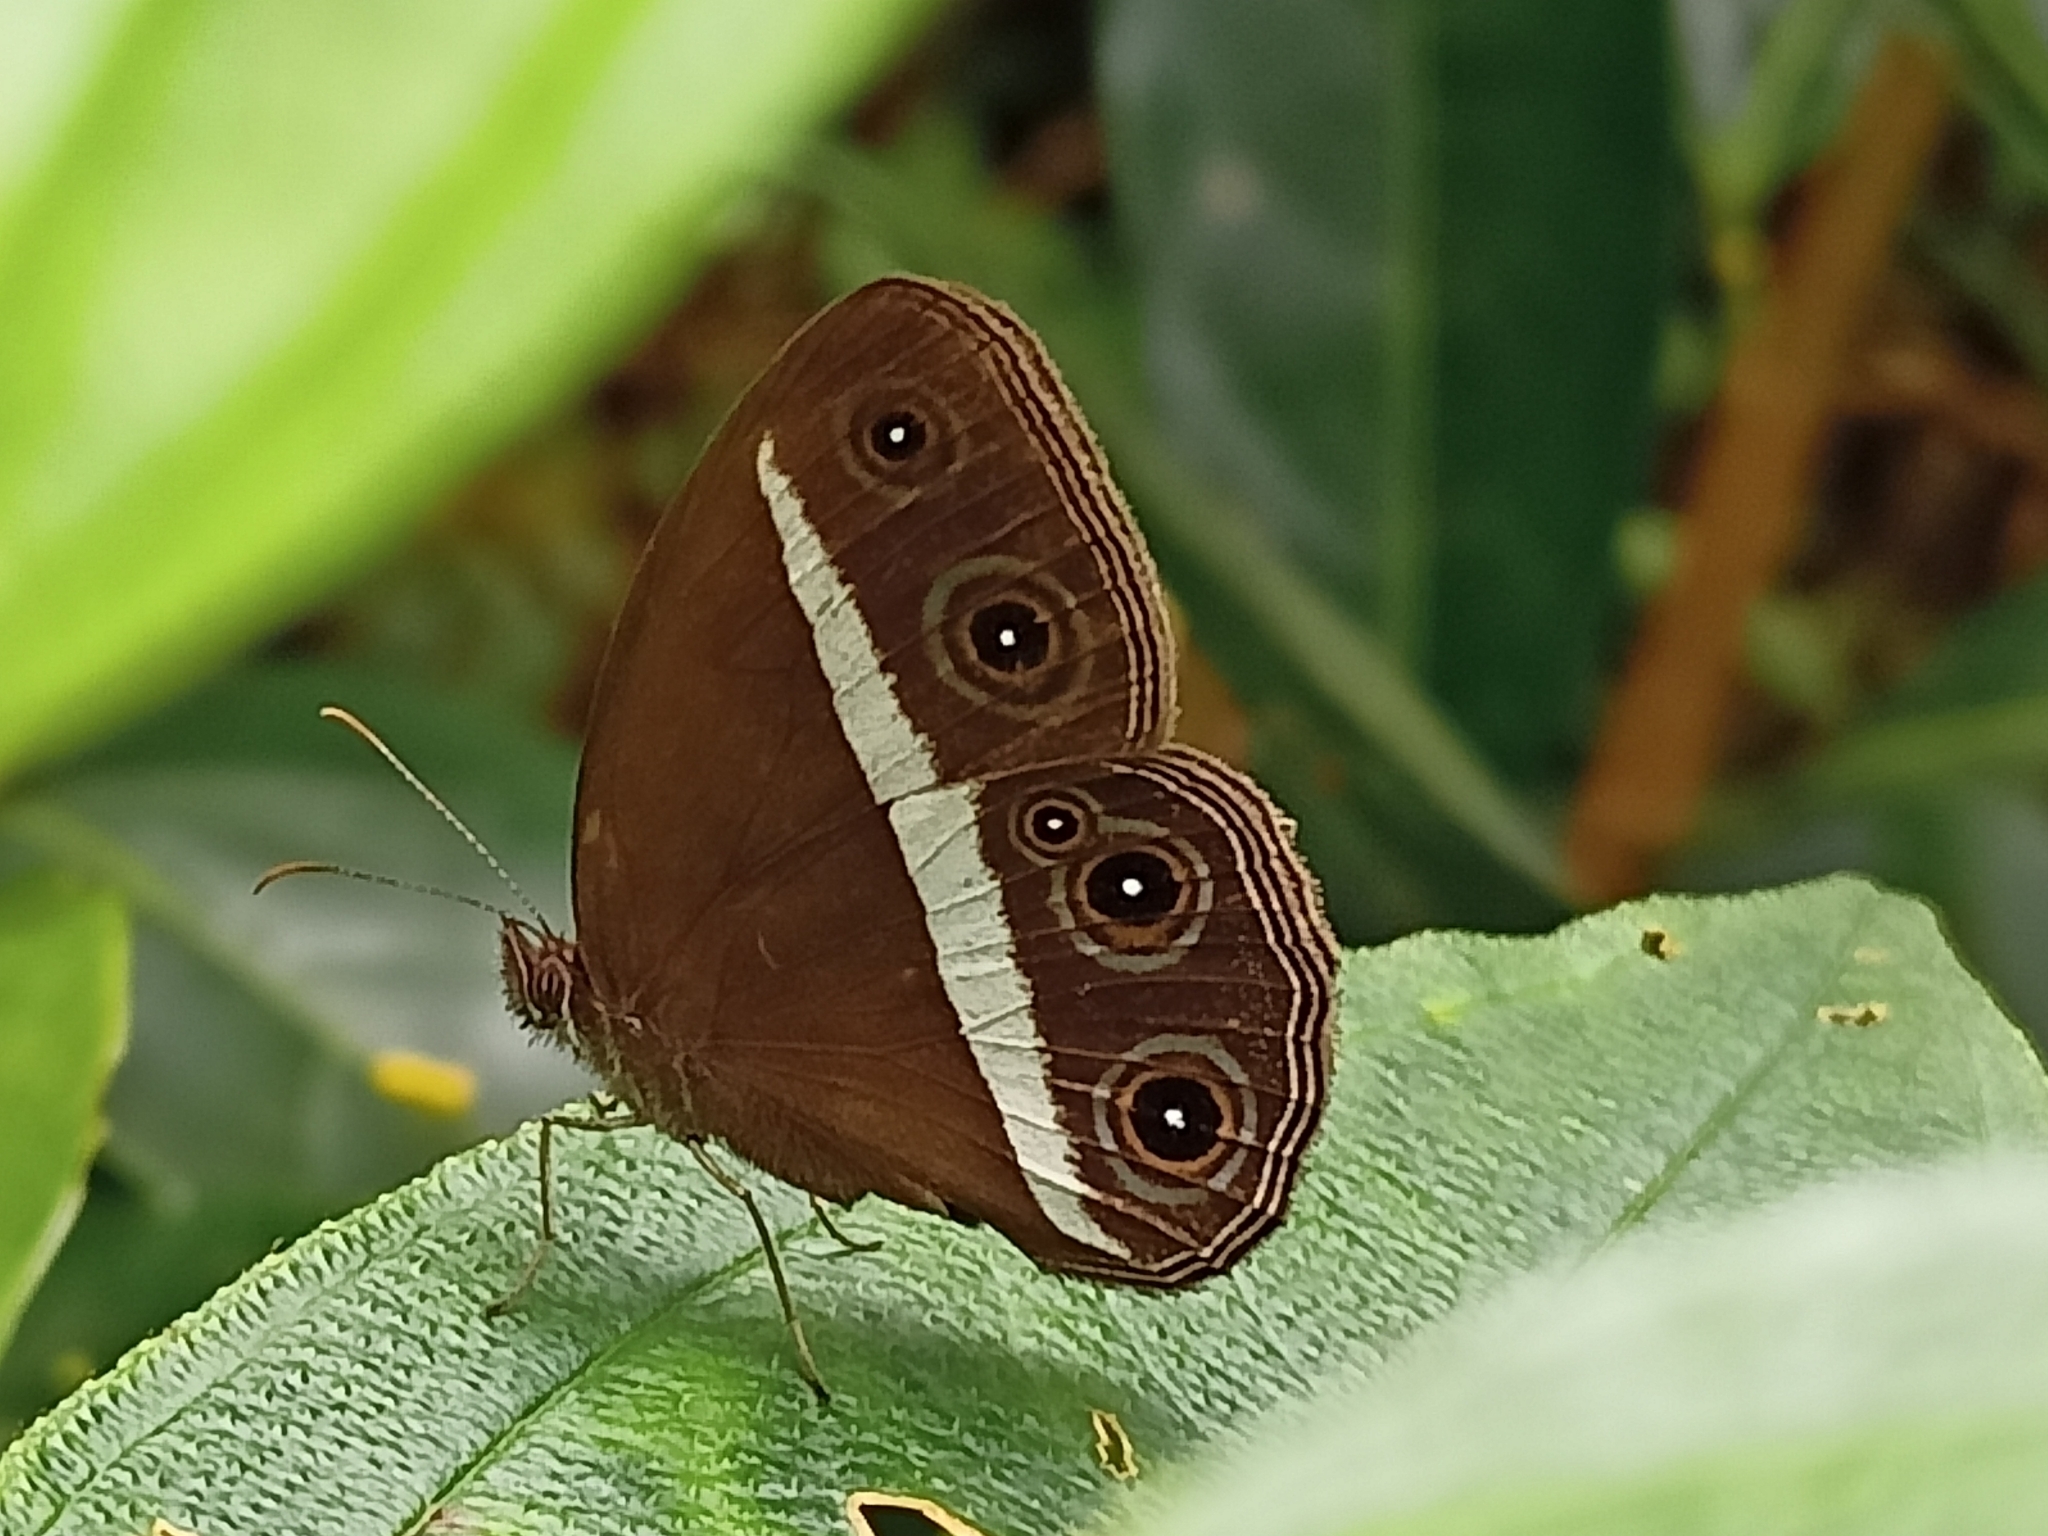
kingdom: Animalia
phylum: Arthropoda
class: Insecta
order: Lepidoptera
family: Nymphalidae
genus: Orsotriaena
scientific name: Orsotriaena medus
